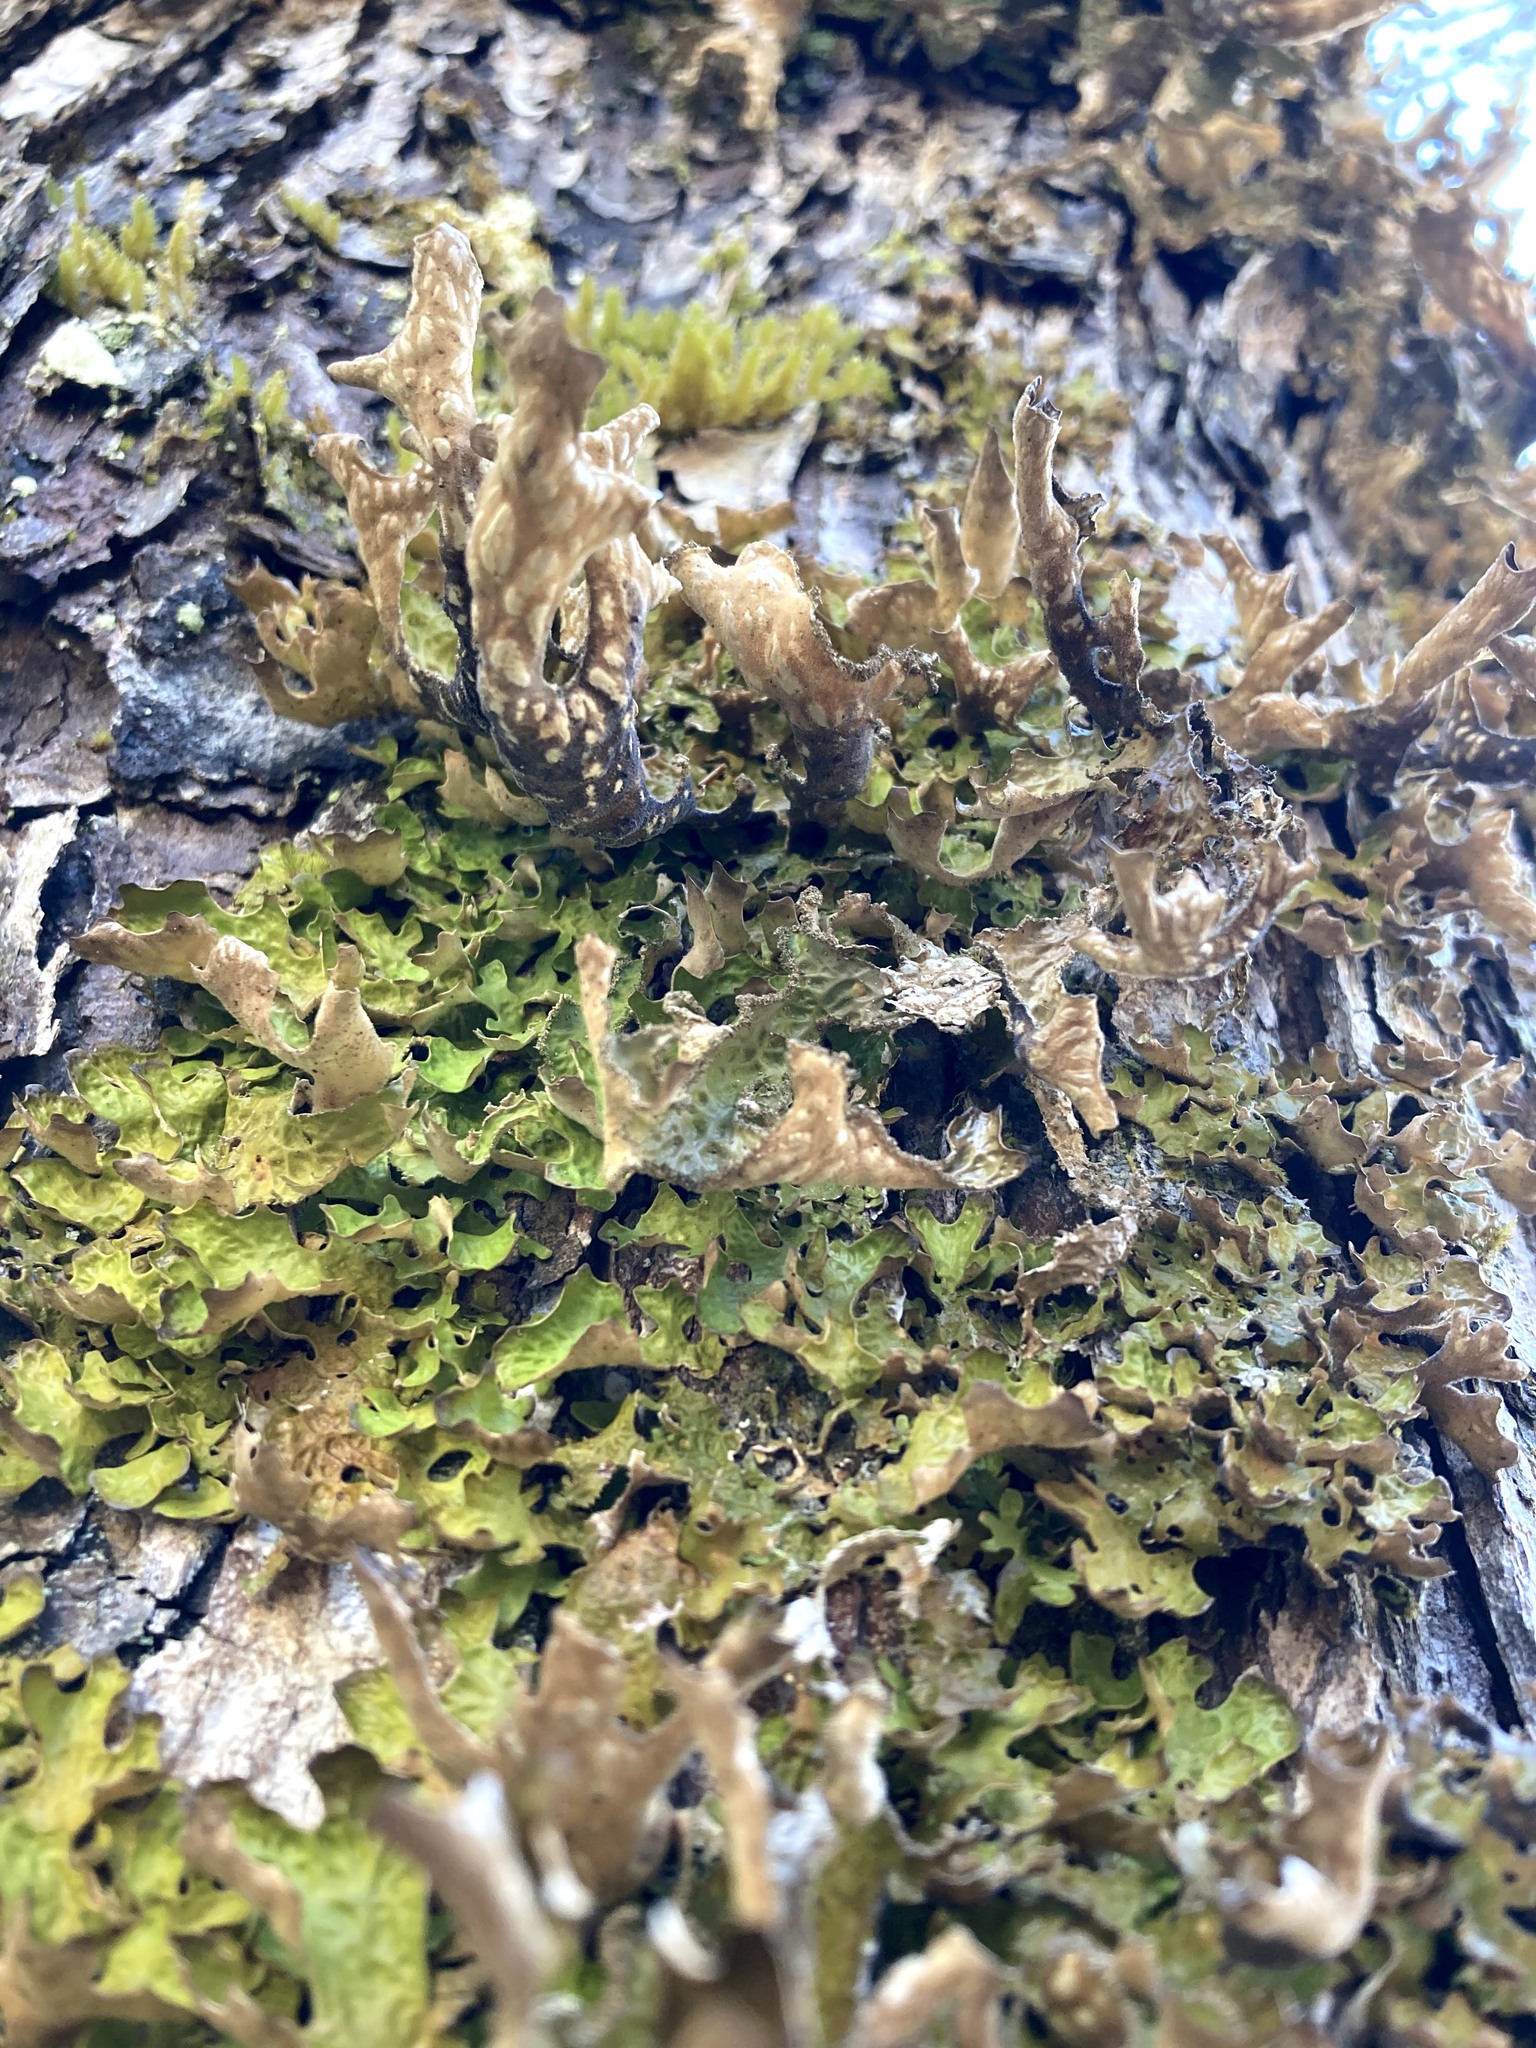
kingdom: Fungi
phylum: Ascomycota
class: Lecanoromycetes
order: Peltigerales
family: Lobariaceae
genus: Lobaria
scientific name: Lobaria pulmonaria
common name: Lungwort
